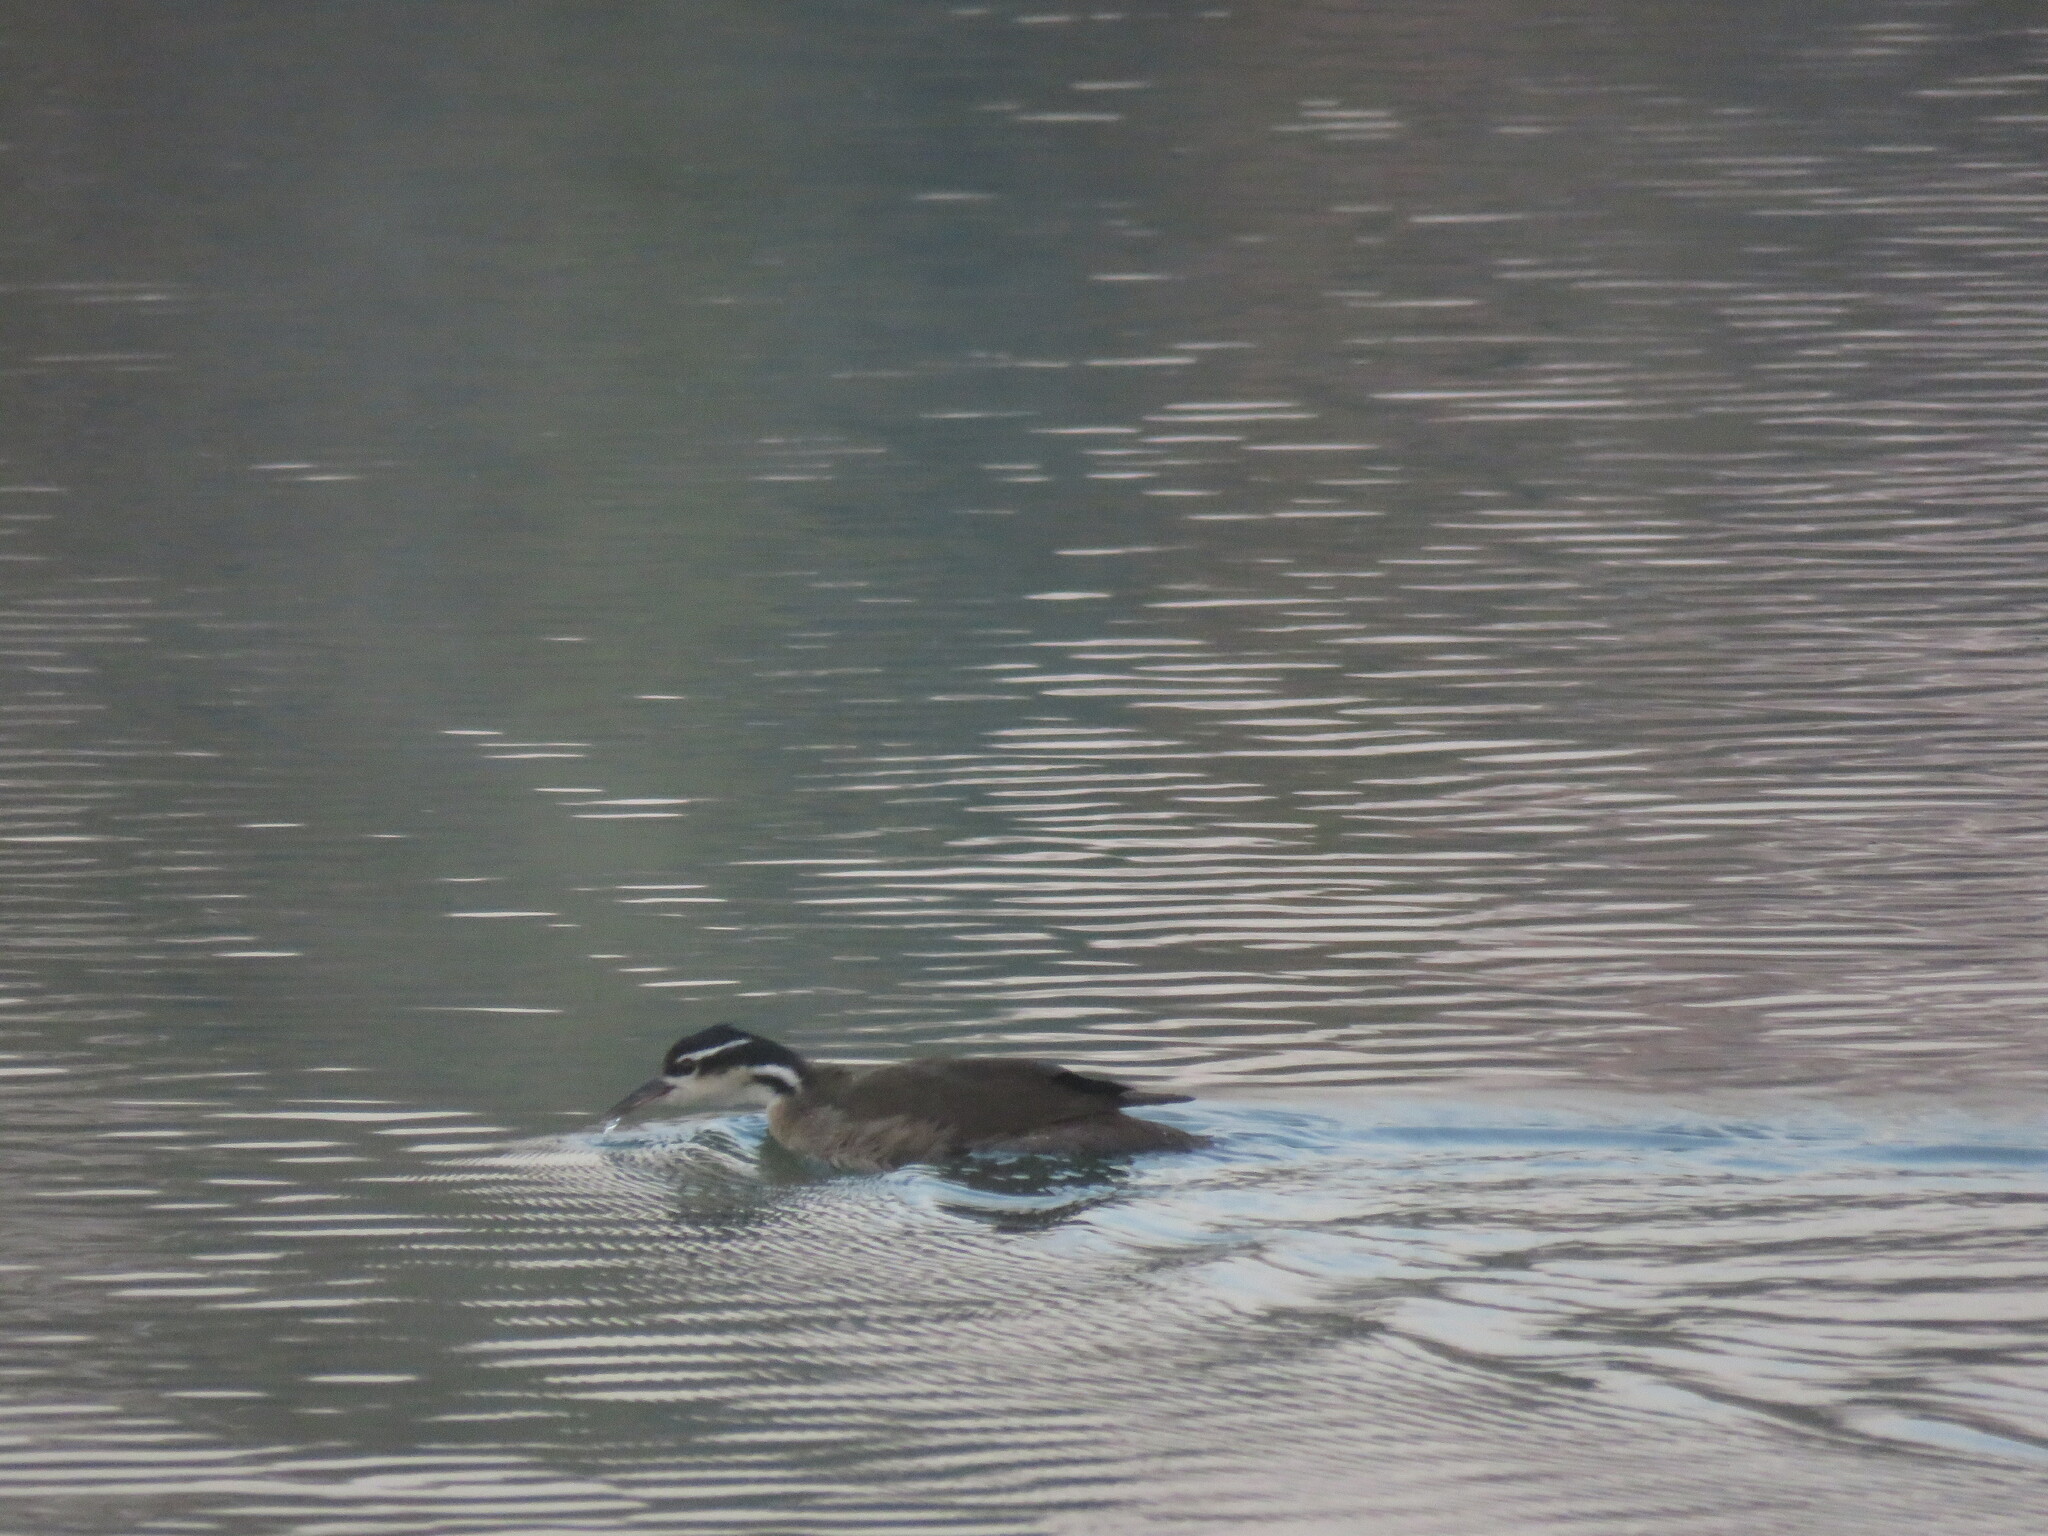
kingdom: Animalia
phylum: Chordata
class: Aves
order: Gruiformes
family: Heliornithidae
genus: Heliornis
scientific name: Heliornis fulica
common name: Sungrebe
